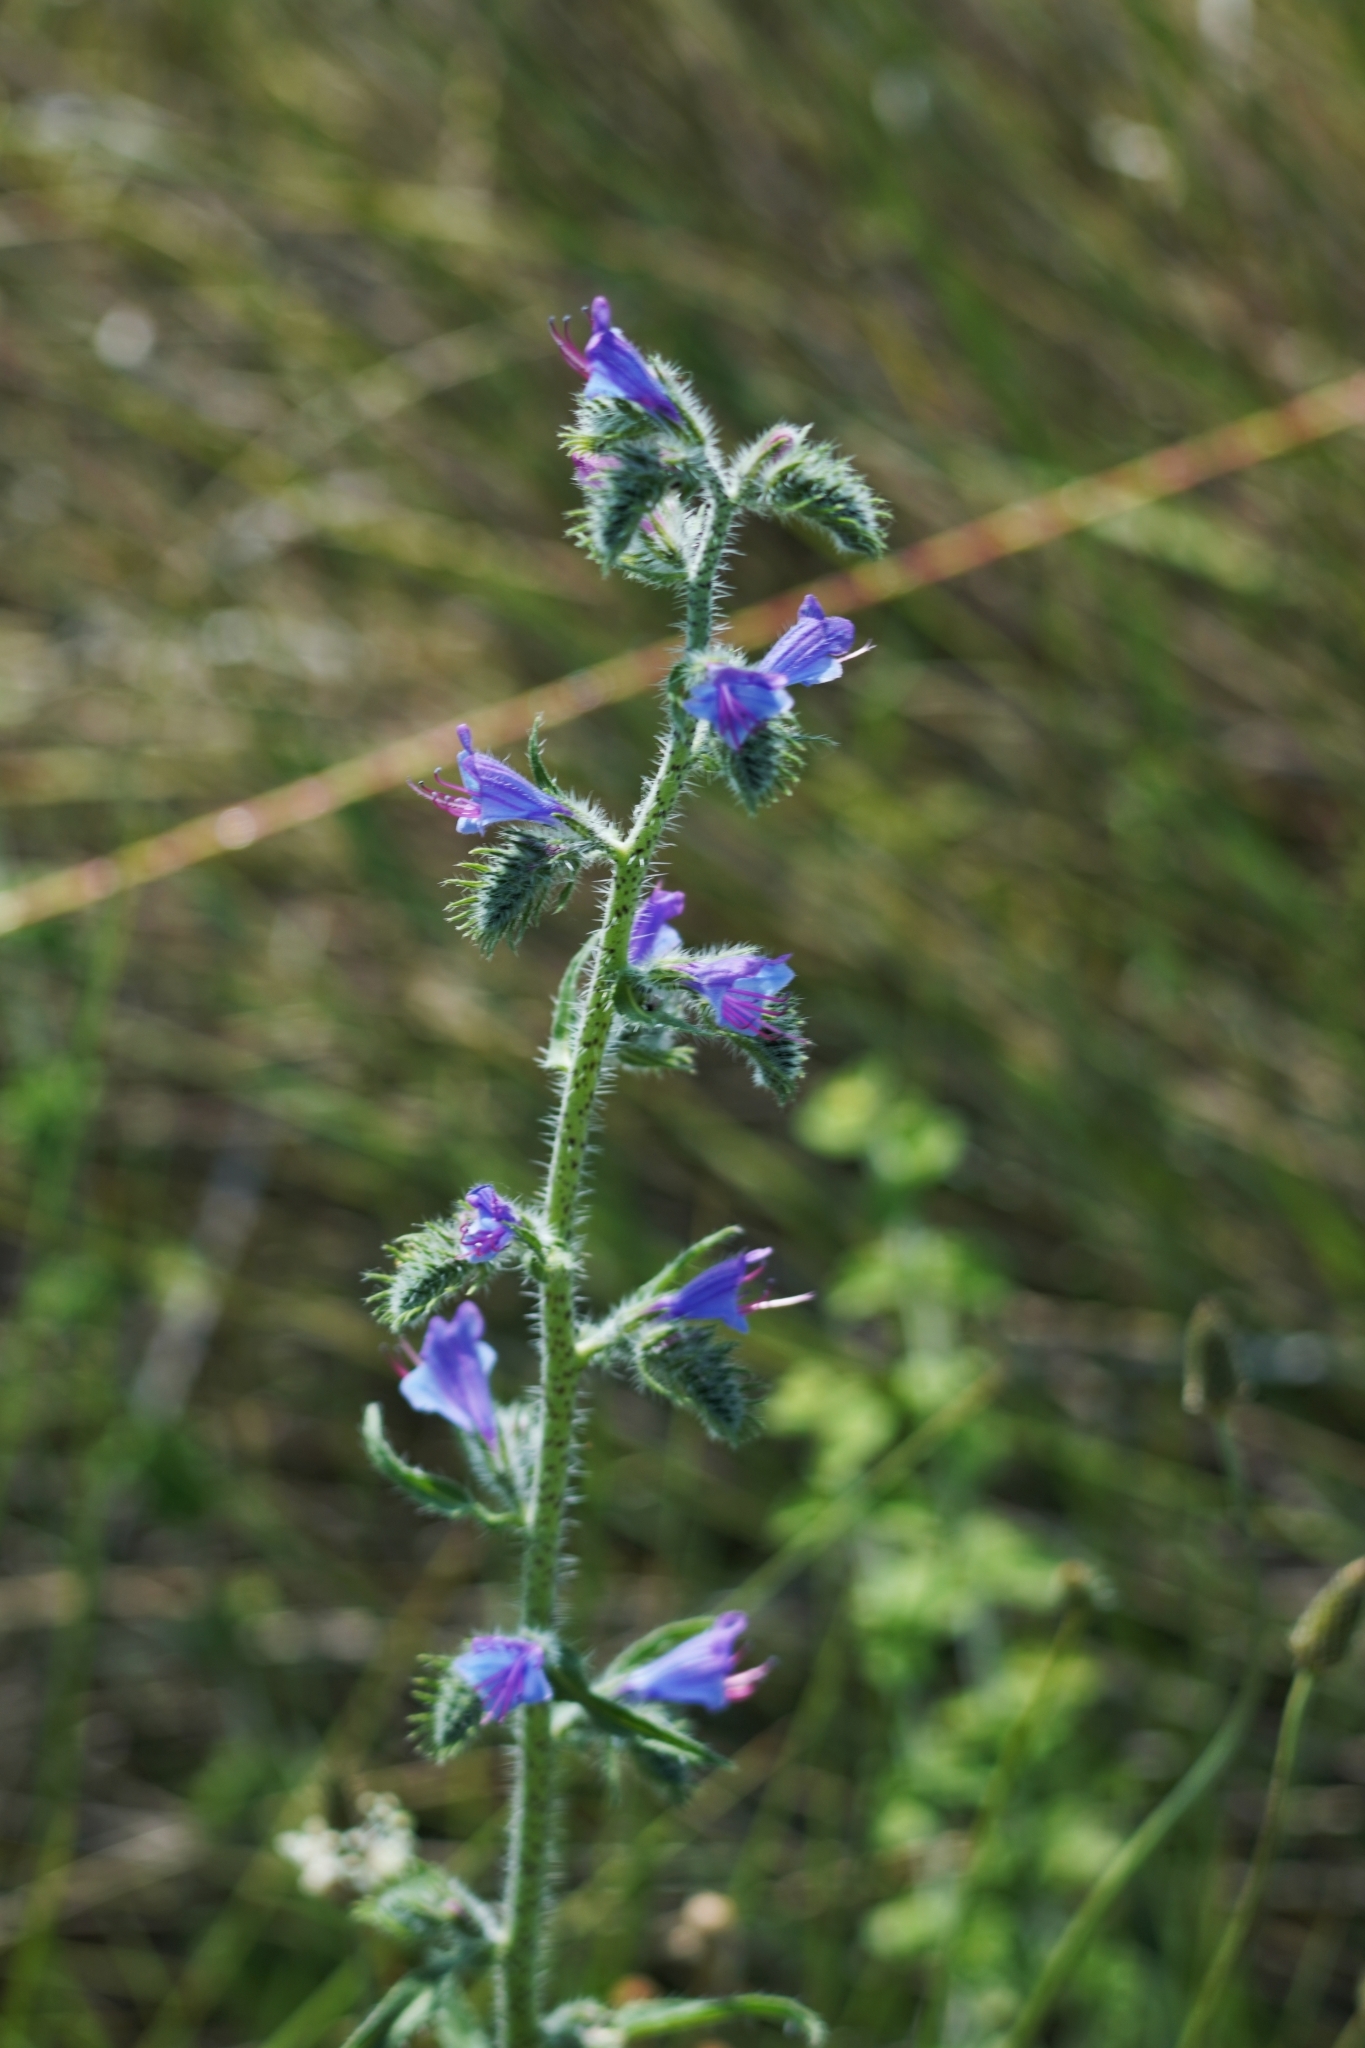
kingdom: Plantae
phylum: Tracheophyta
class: Magnoliopsida
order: Boraginales
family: Boraginaceae
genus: Echium
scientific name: Echium vulgare
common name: Common viper's bugloss
